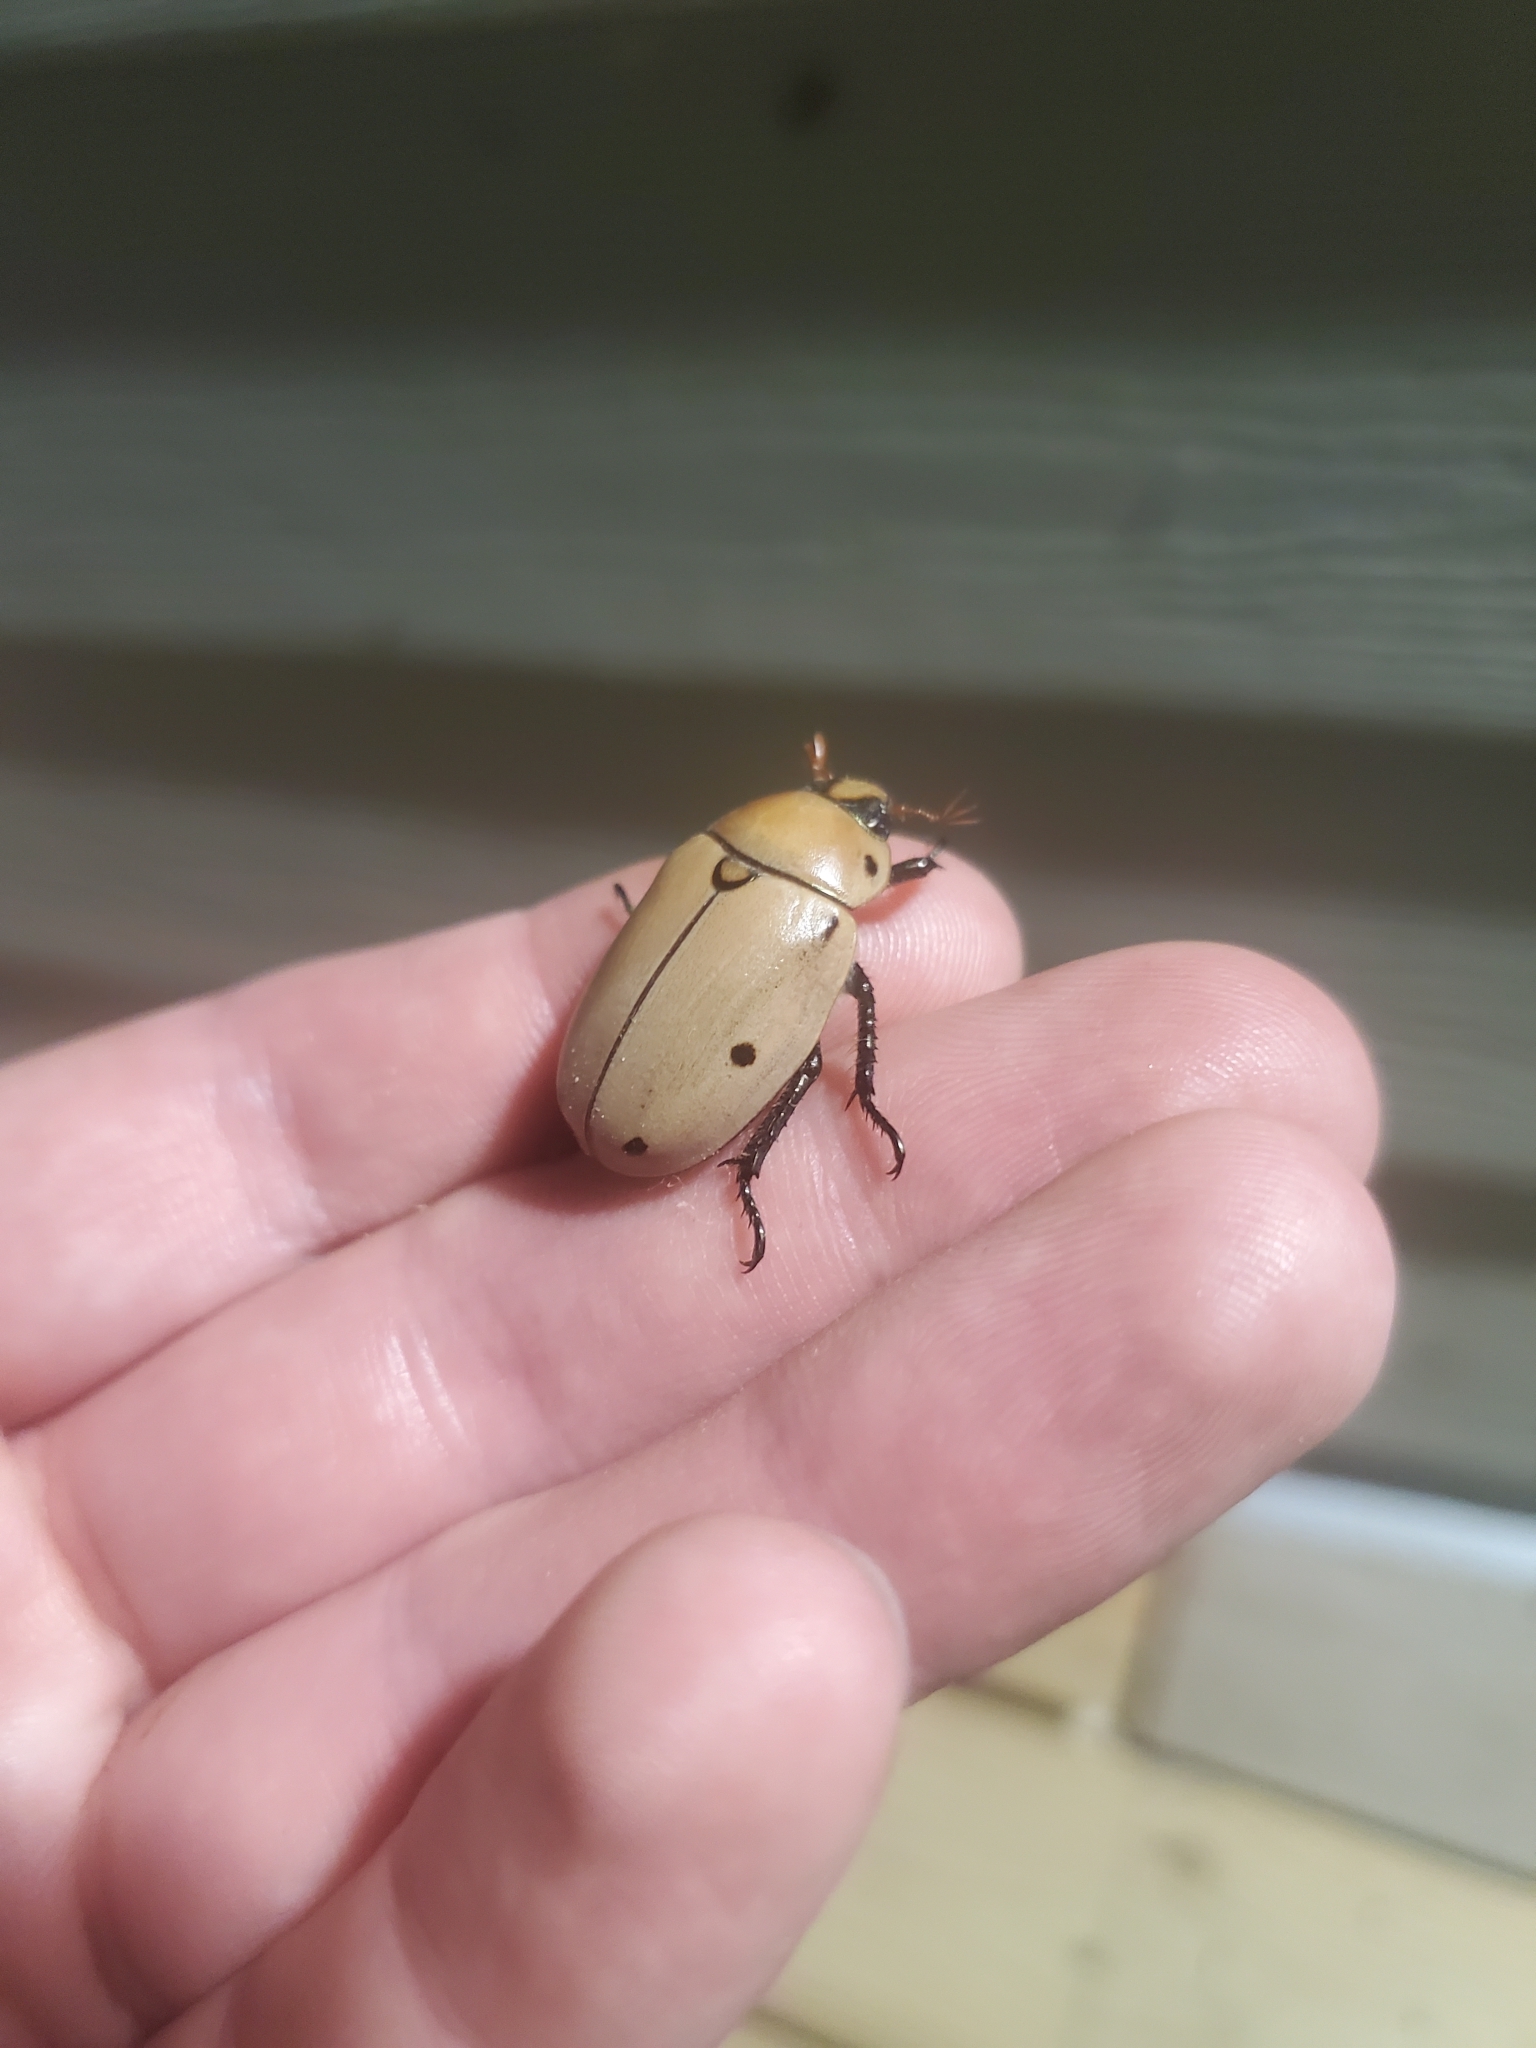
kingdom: Animalia
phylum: Arthropoda
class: Insecta
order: Coleoptera
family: Scarabaeidae
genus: Pelidnota
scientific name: Pelidnota punctata
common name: Grapevine beetle
